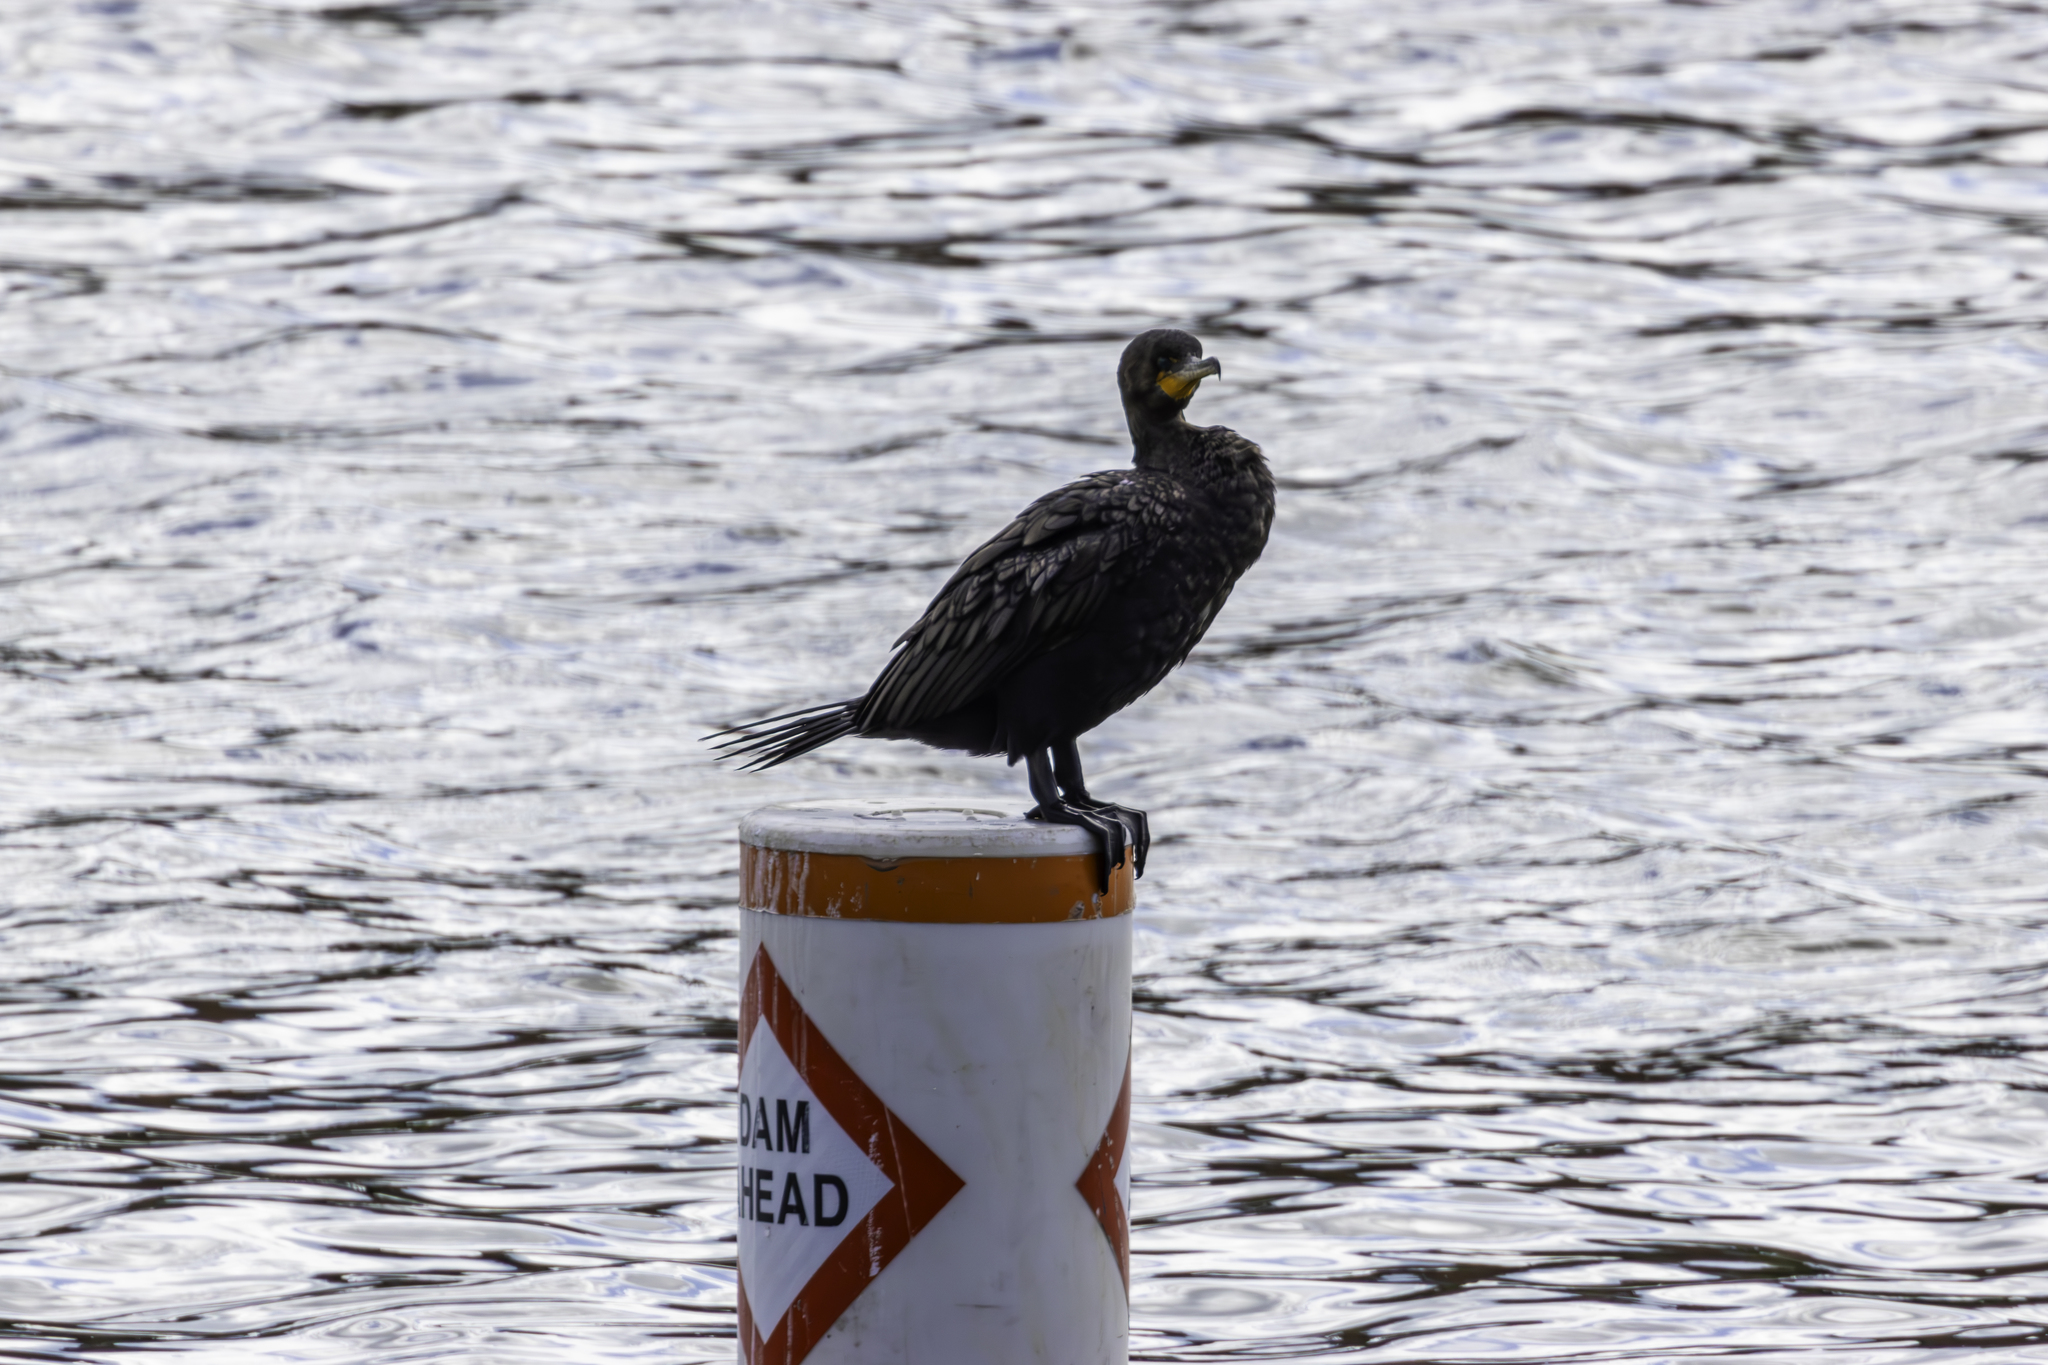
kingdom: Animalia
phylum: Chordata
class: Aves
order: Suliformes
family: Phalacrocoracidae
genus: Phalacrocorax
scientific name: Phalacrocorax auritus
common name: Double-crested cormorant
